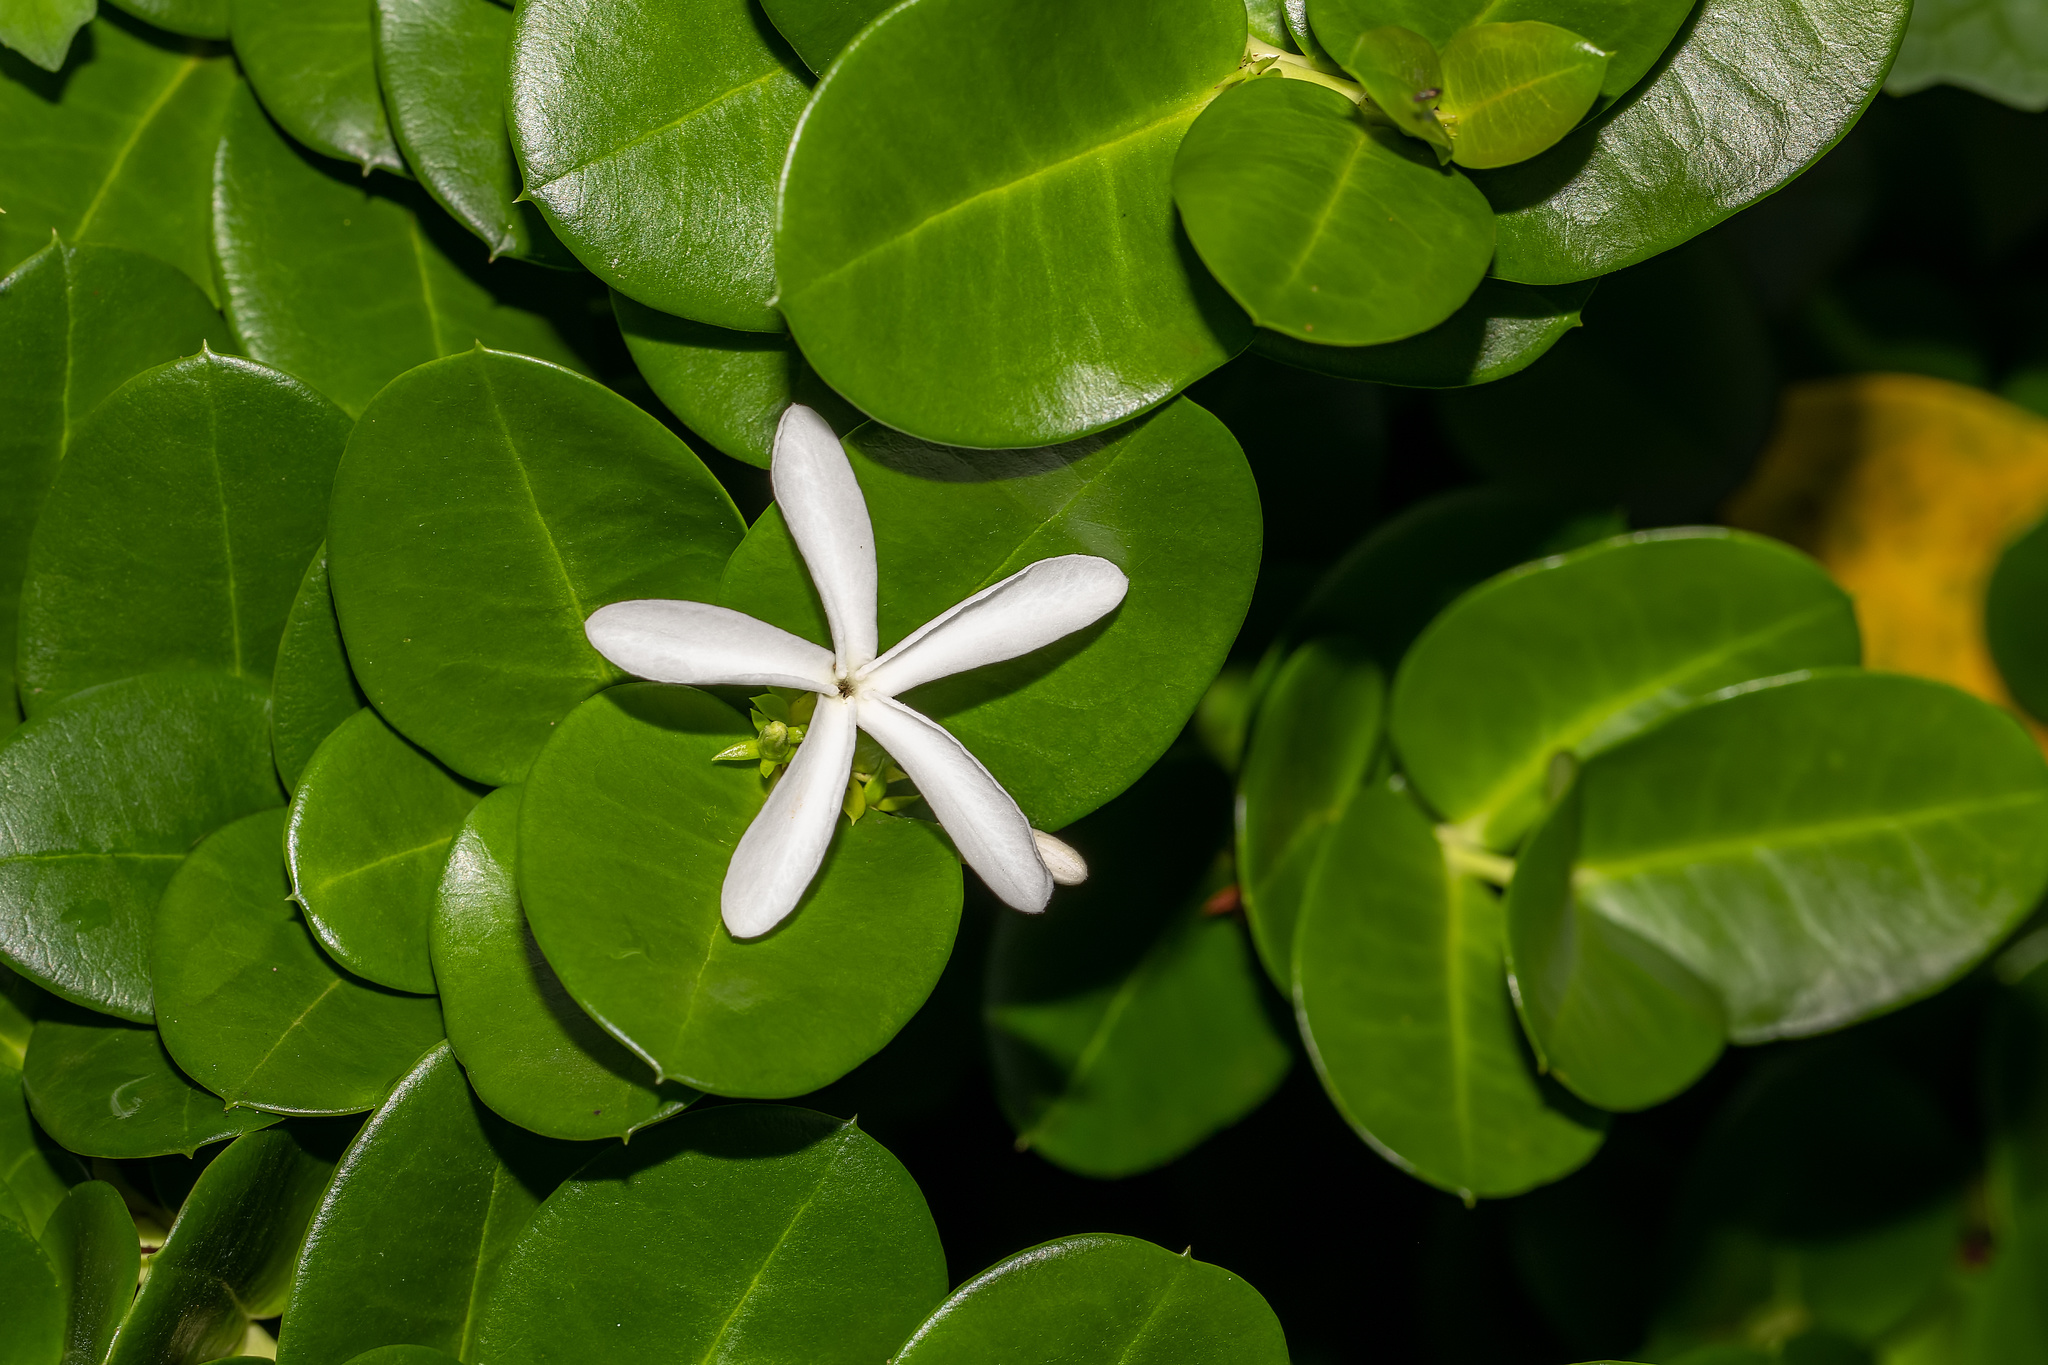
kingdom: Plantae
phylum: Tracheophyta
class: Magnoliopsida
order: Gentianales
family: Apocynaceae
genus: Carissa
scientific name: Carissa macrocarpa
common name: Natal plum
